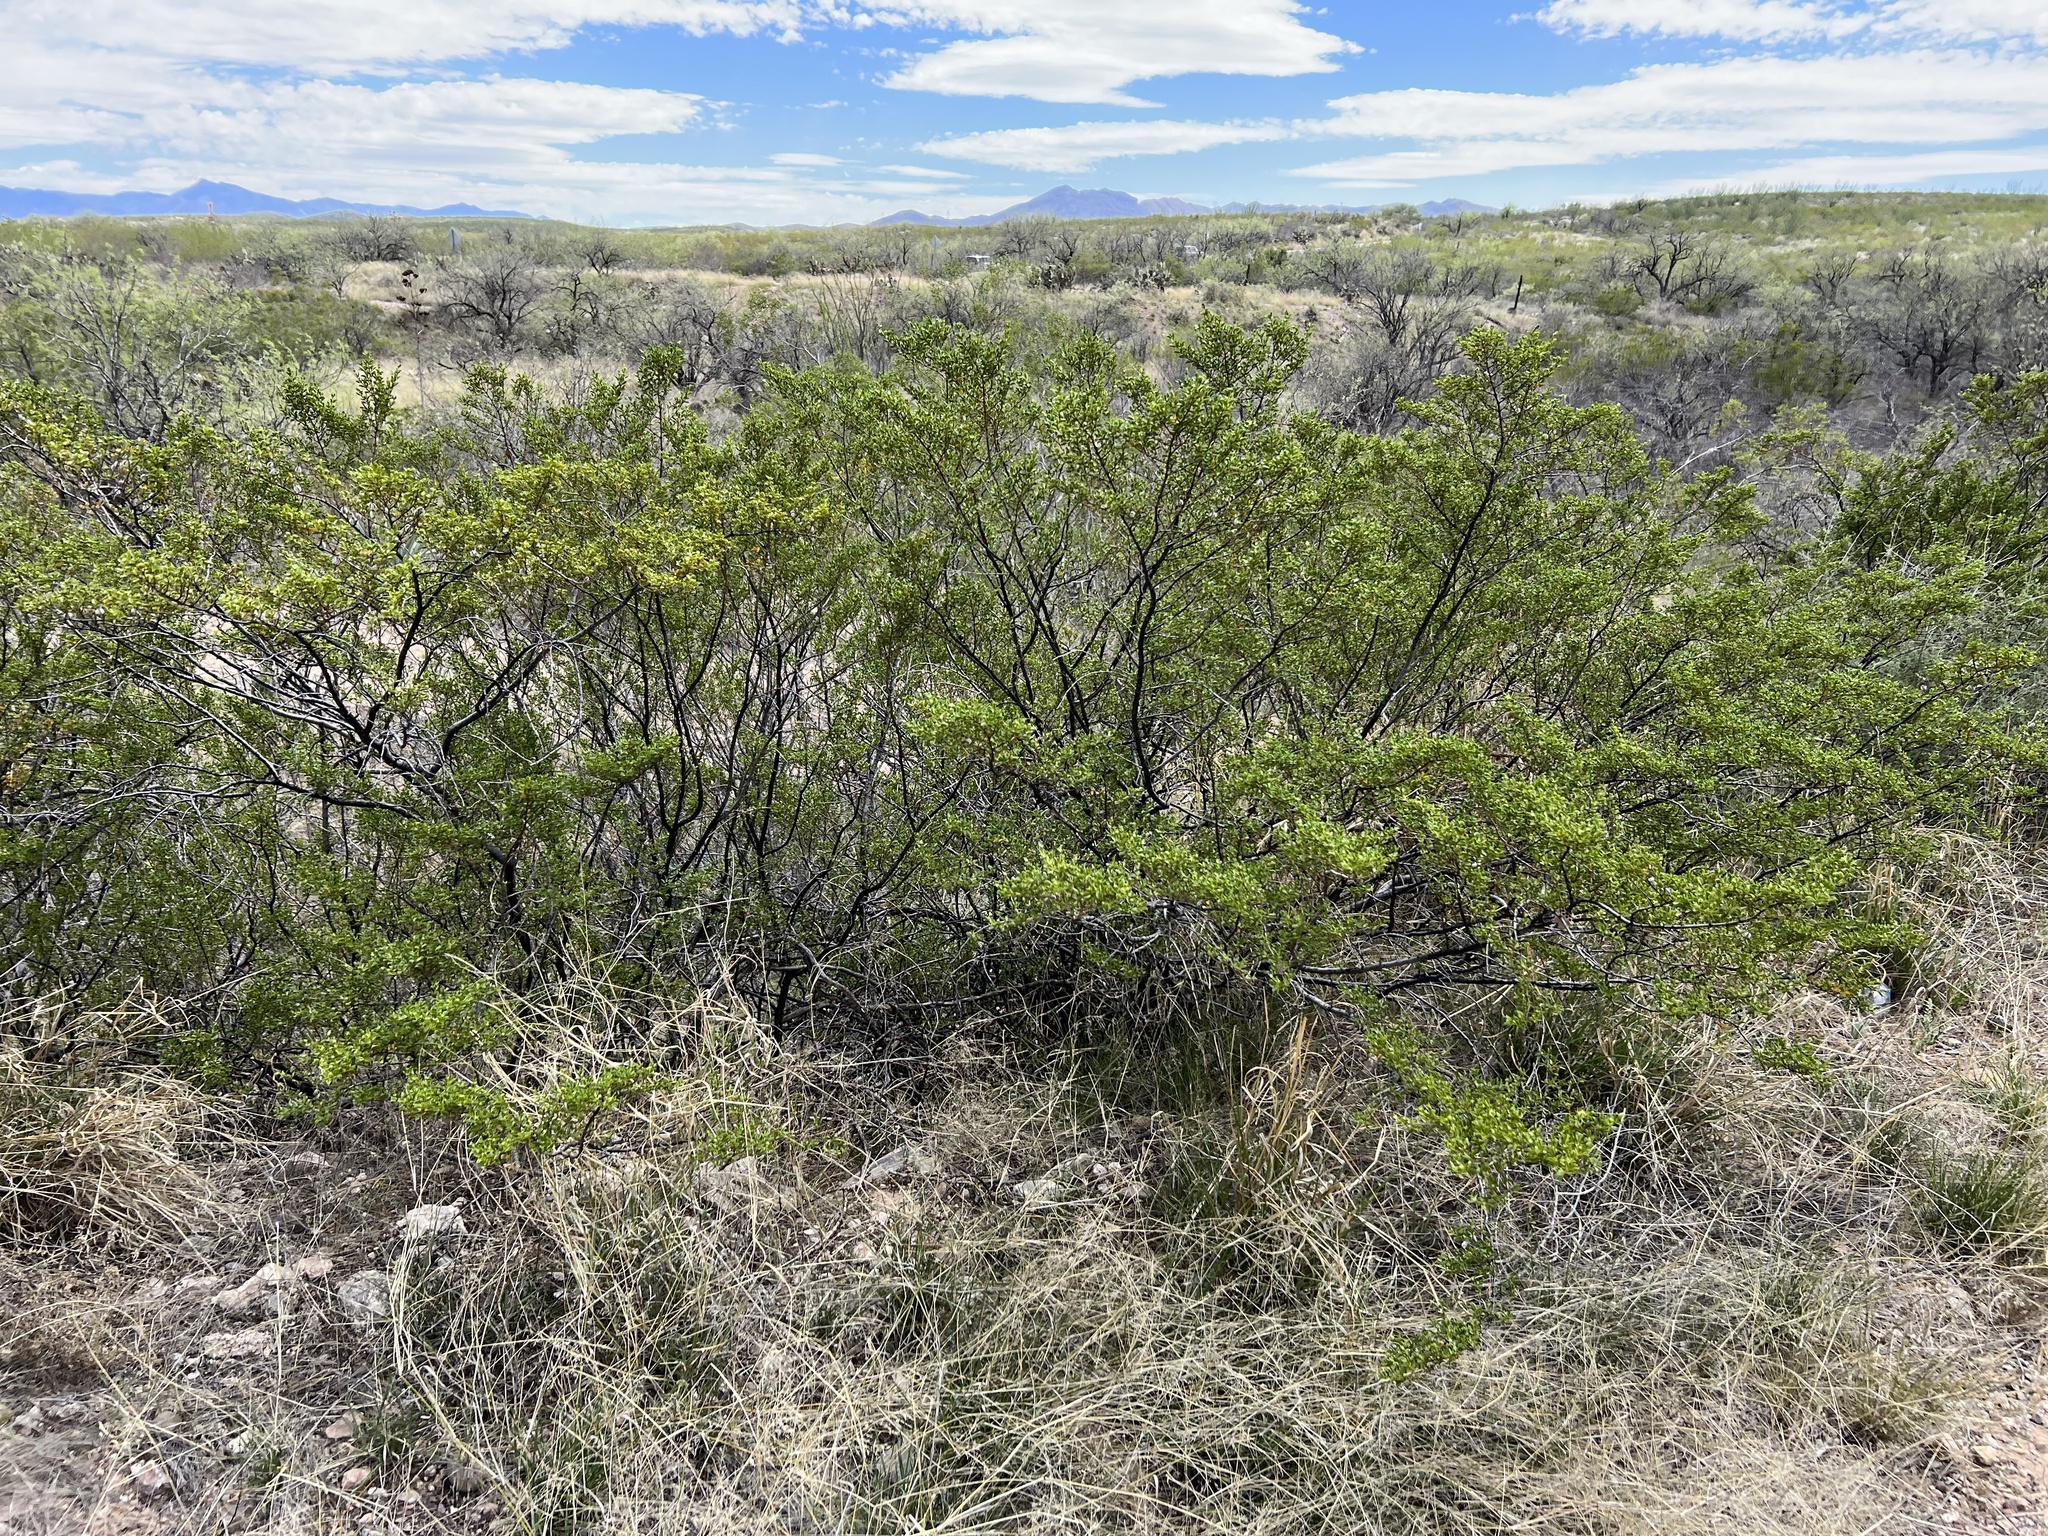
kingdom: Plantae
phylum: Tracheophyta
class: Magnoliopsida
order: Zygophyllales
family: Zygophyllaceae
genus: Larrea
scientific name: Larrea tridentata
